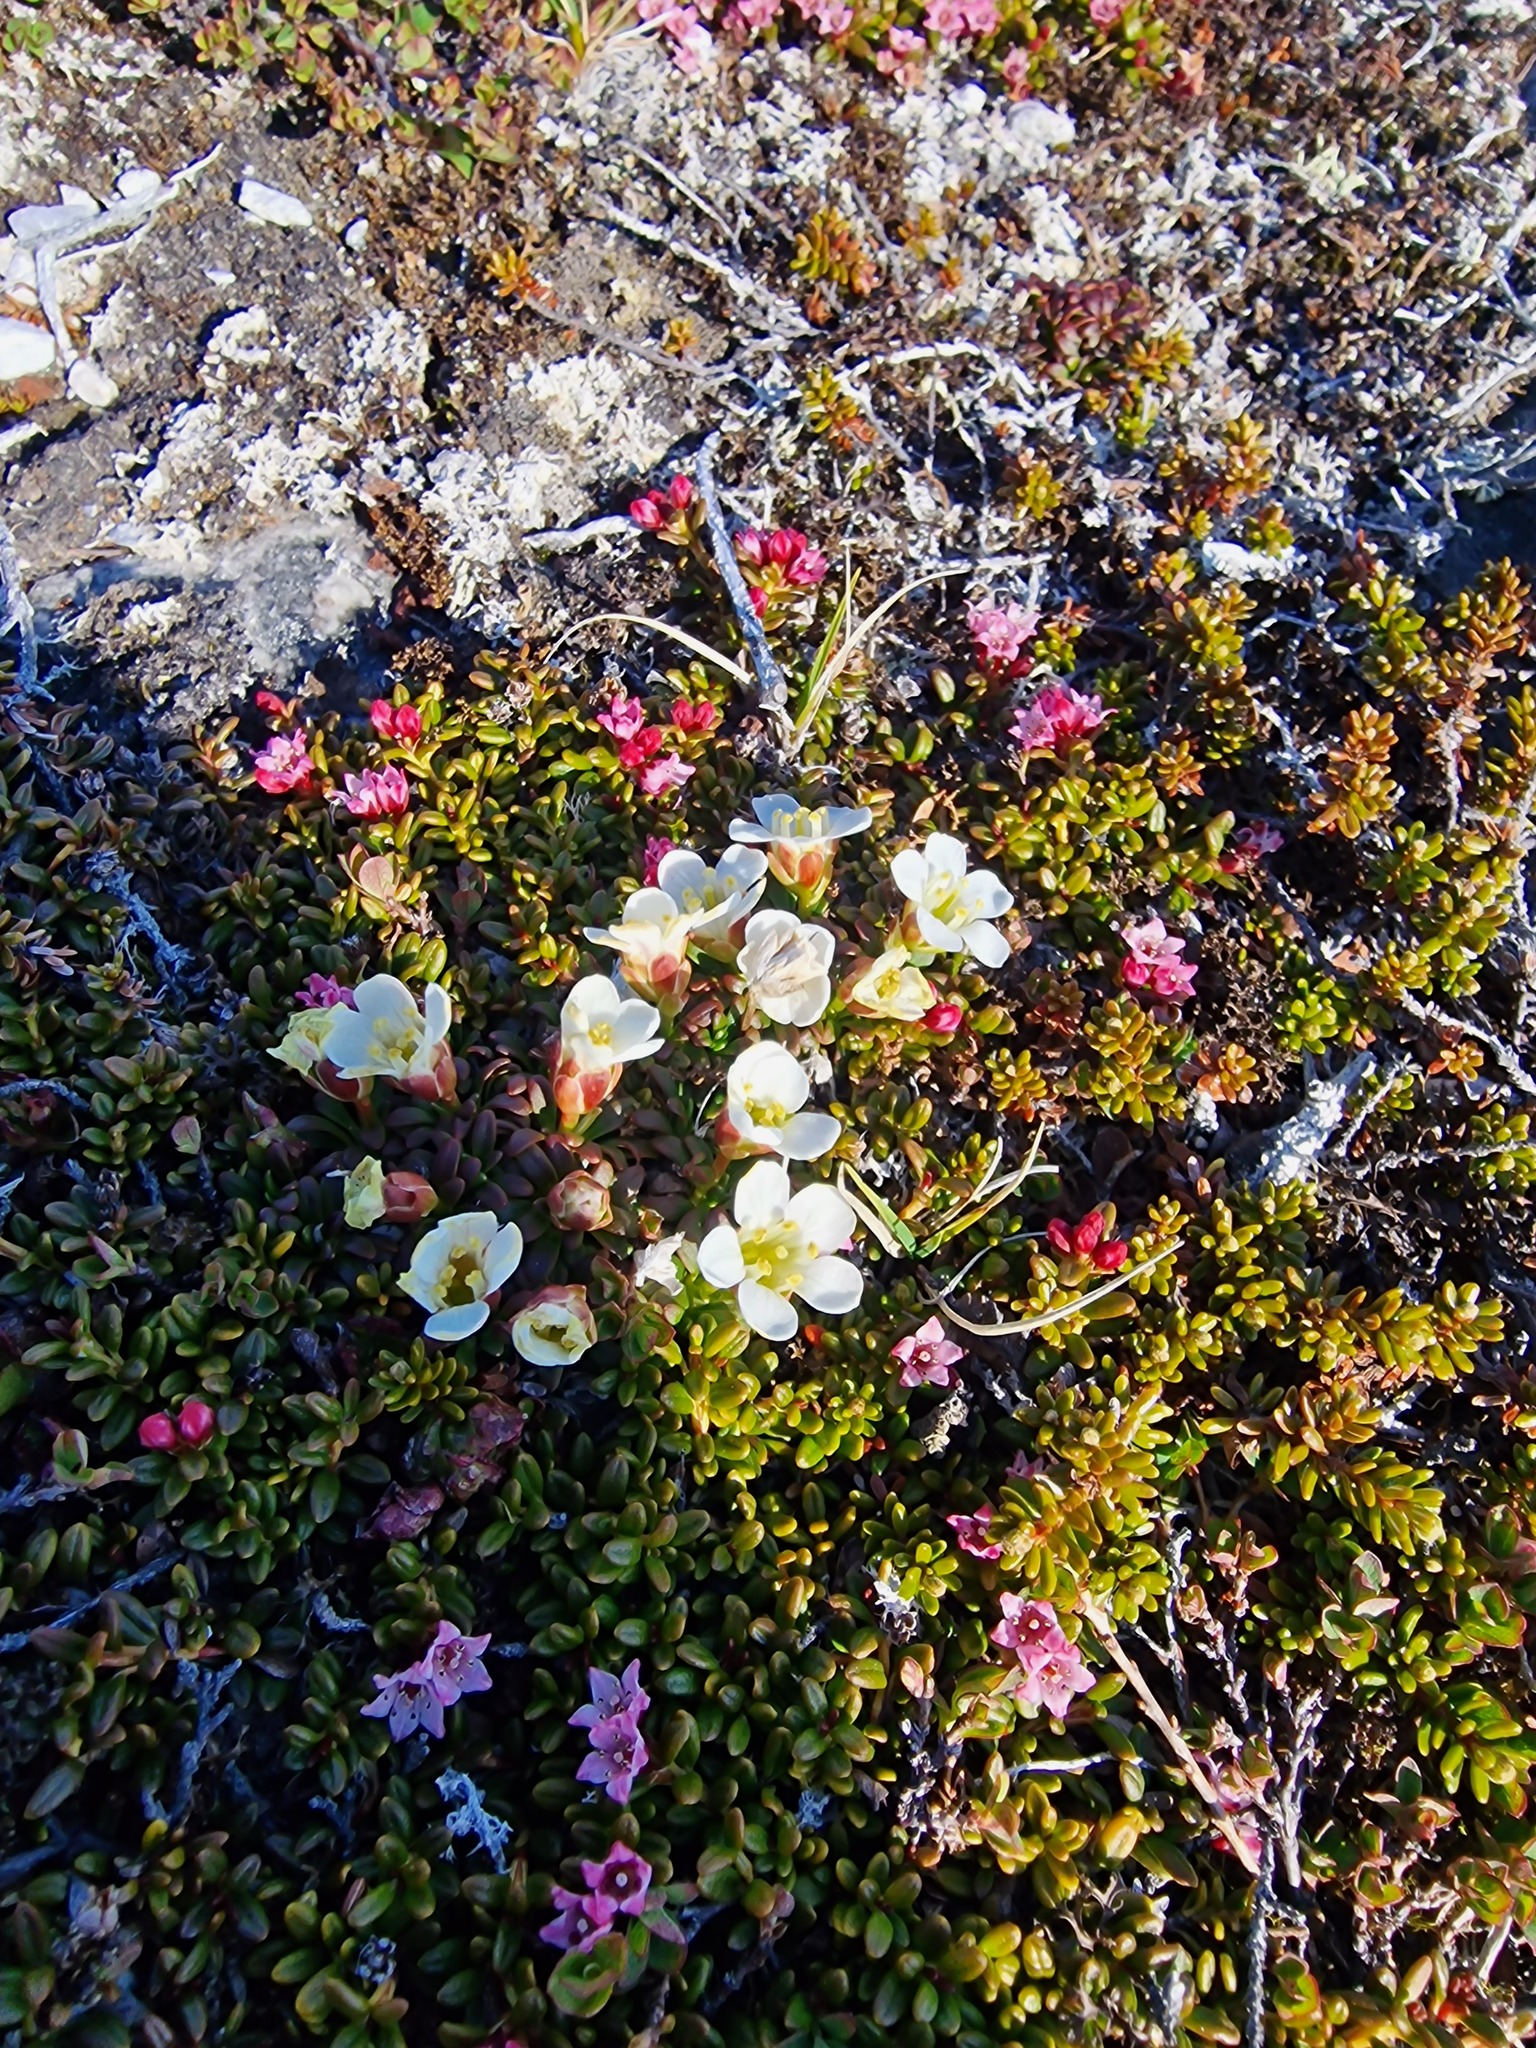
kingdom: Plantae
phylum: Tracheophyta
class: Magnoliopsida
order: Ericales
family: Diapensiaceae
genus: Diapensia
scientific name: Diapensia lapponica
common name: Diapensia
